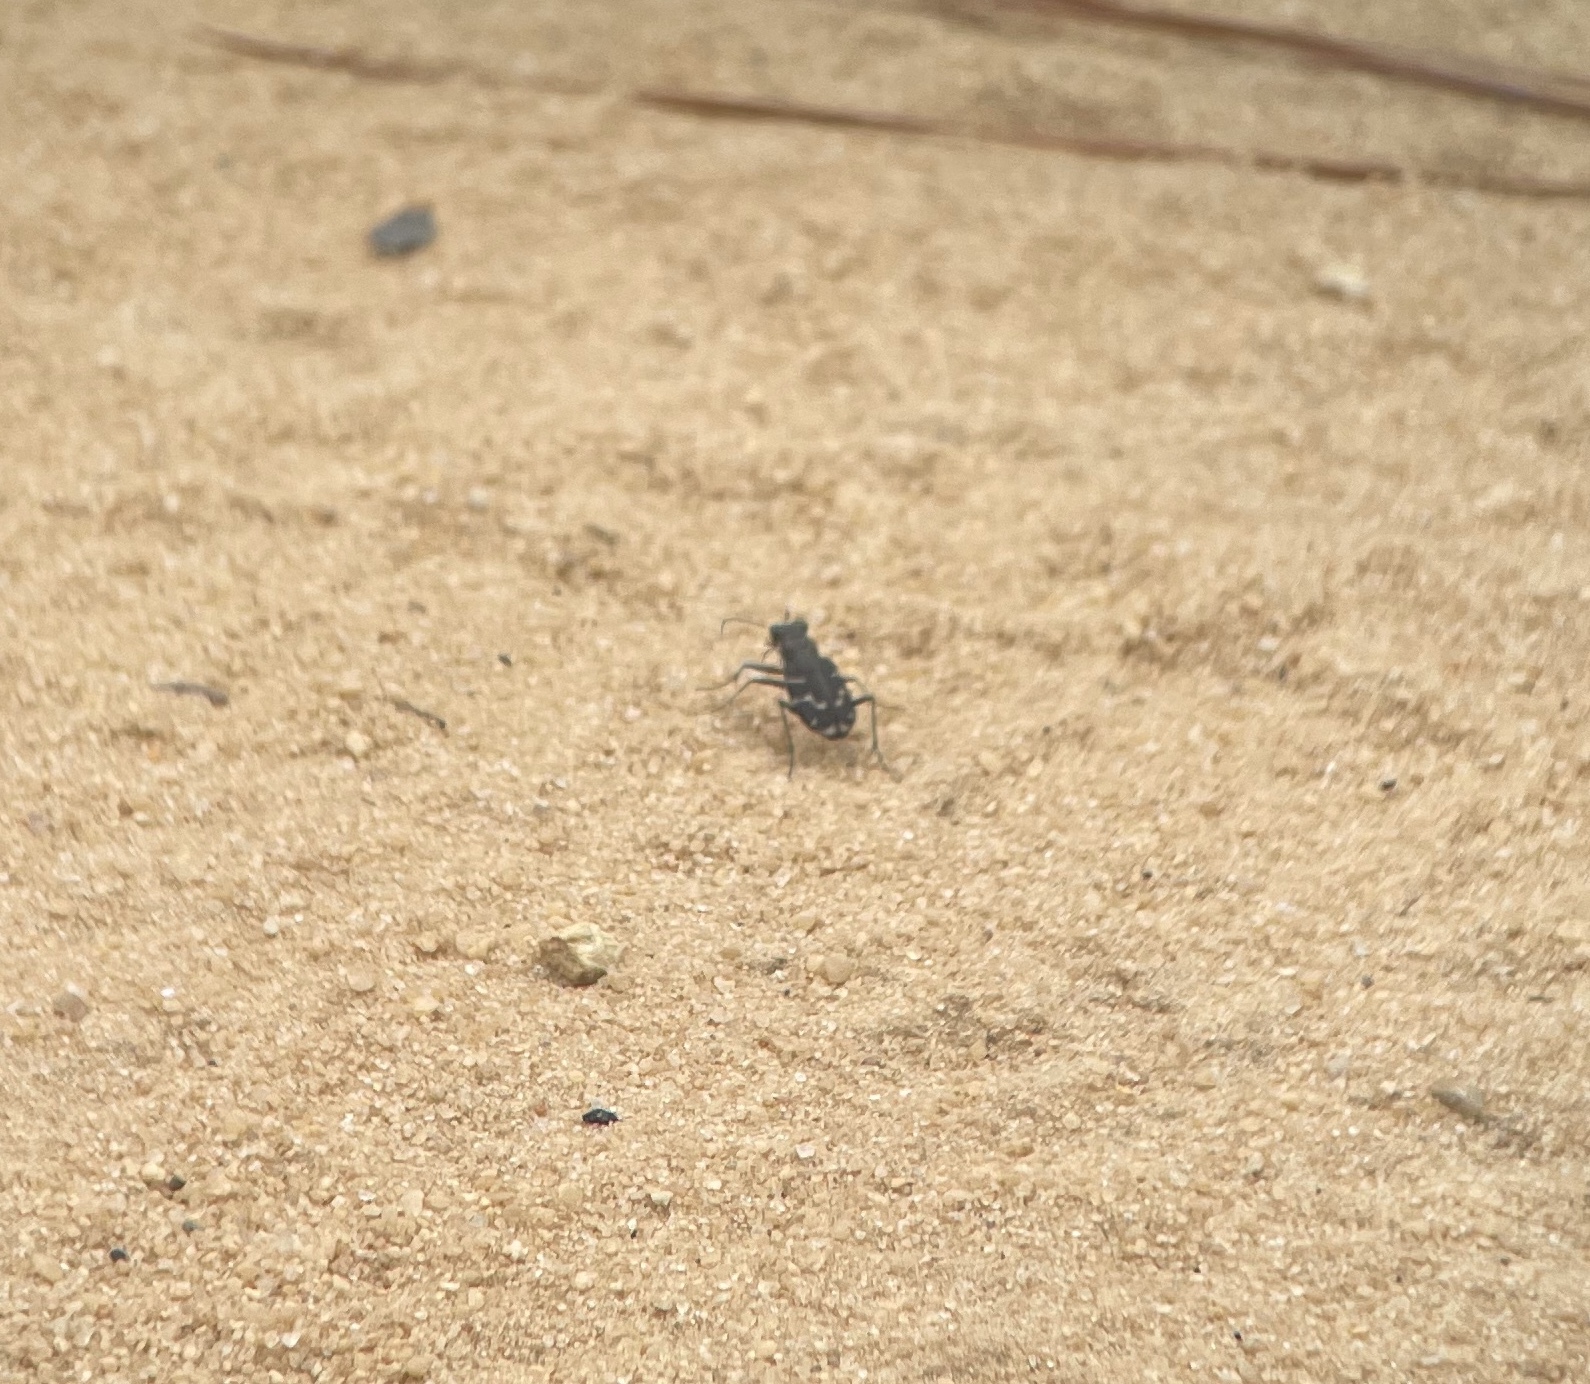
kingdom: Animalia
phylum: Arthropoda
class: Insecta
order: Coleoptera
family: Carabidae
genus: Cicindela
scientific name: Cicindela tranquebarica
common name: Oblique-lined tiger beetle
